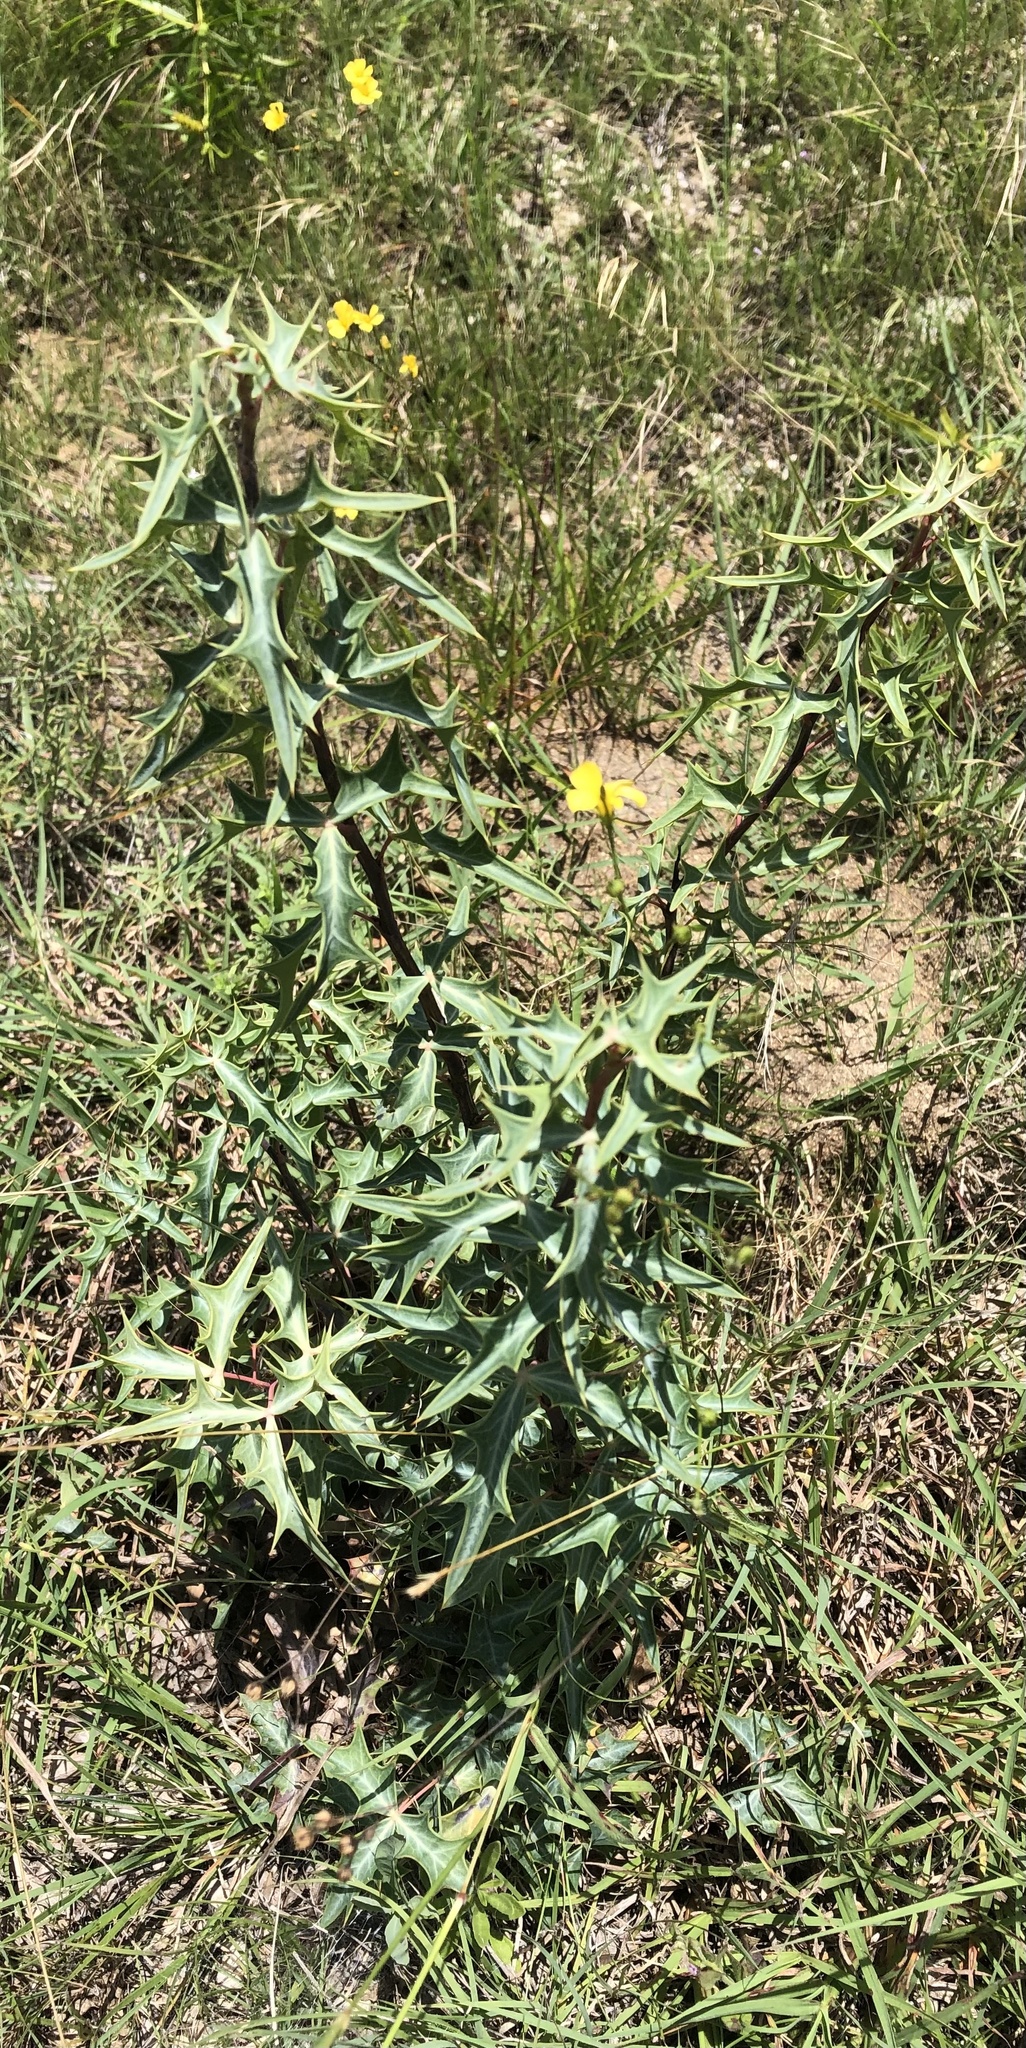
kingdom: Plantae
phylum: Tracheophyta
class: Magnoliopsida
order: Ranunculales
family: Berberidaceae
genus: Alloberberis
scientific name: Alloberberis trifoliolata
